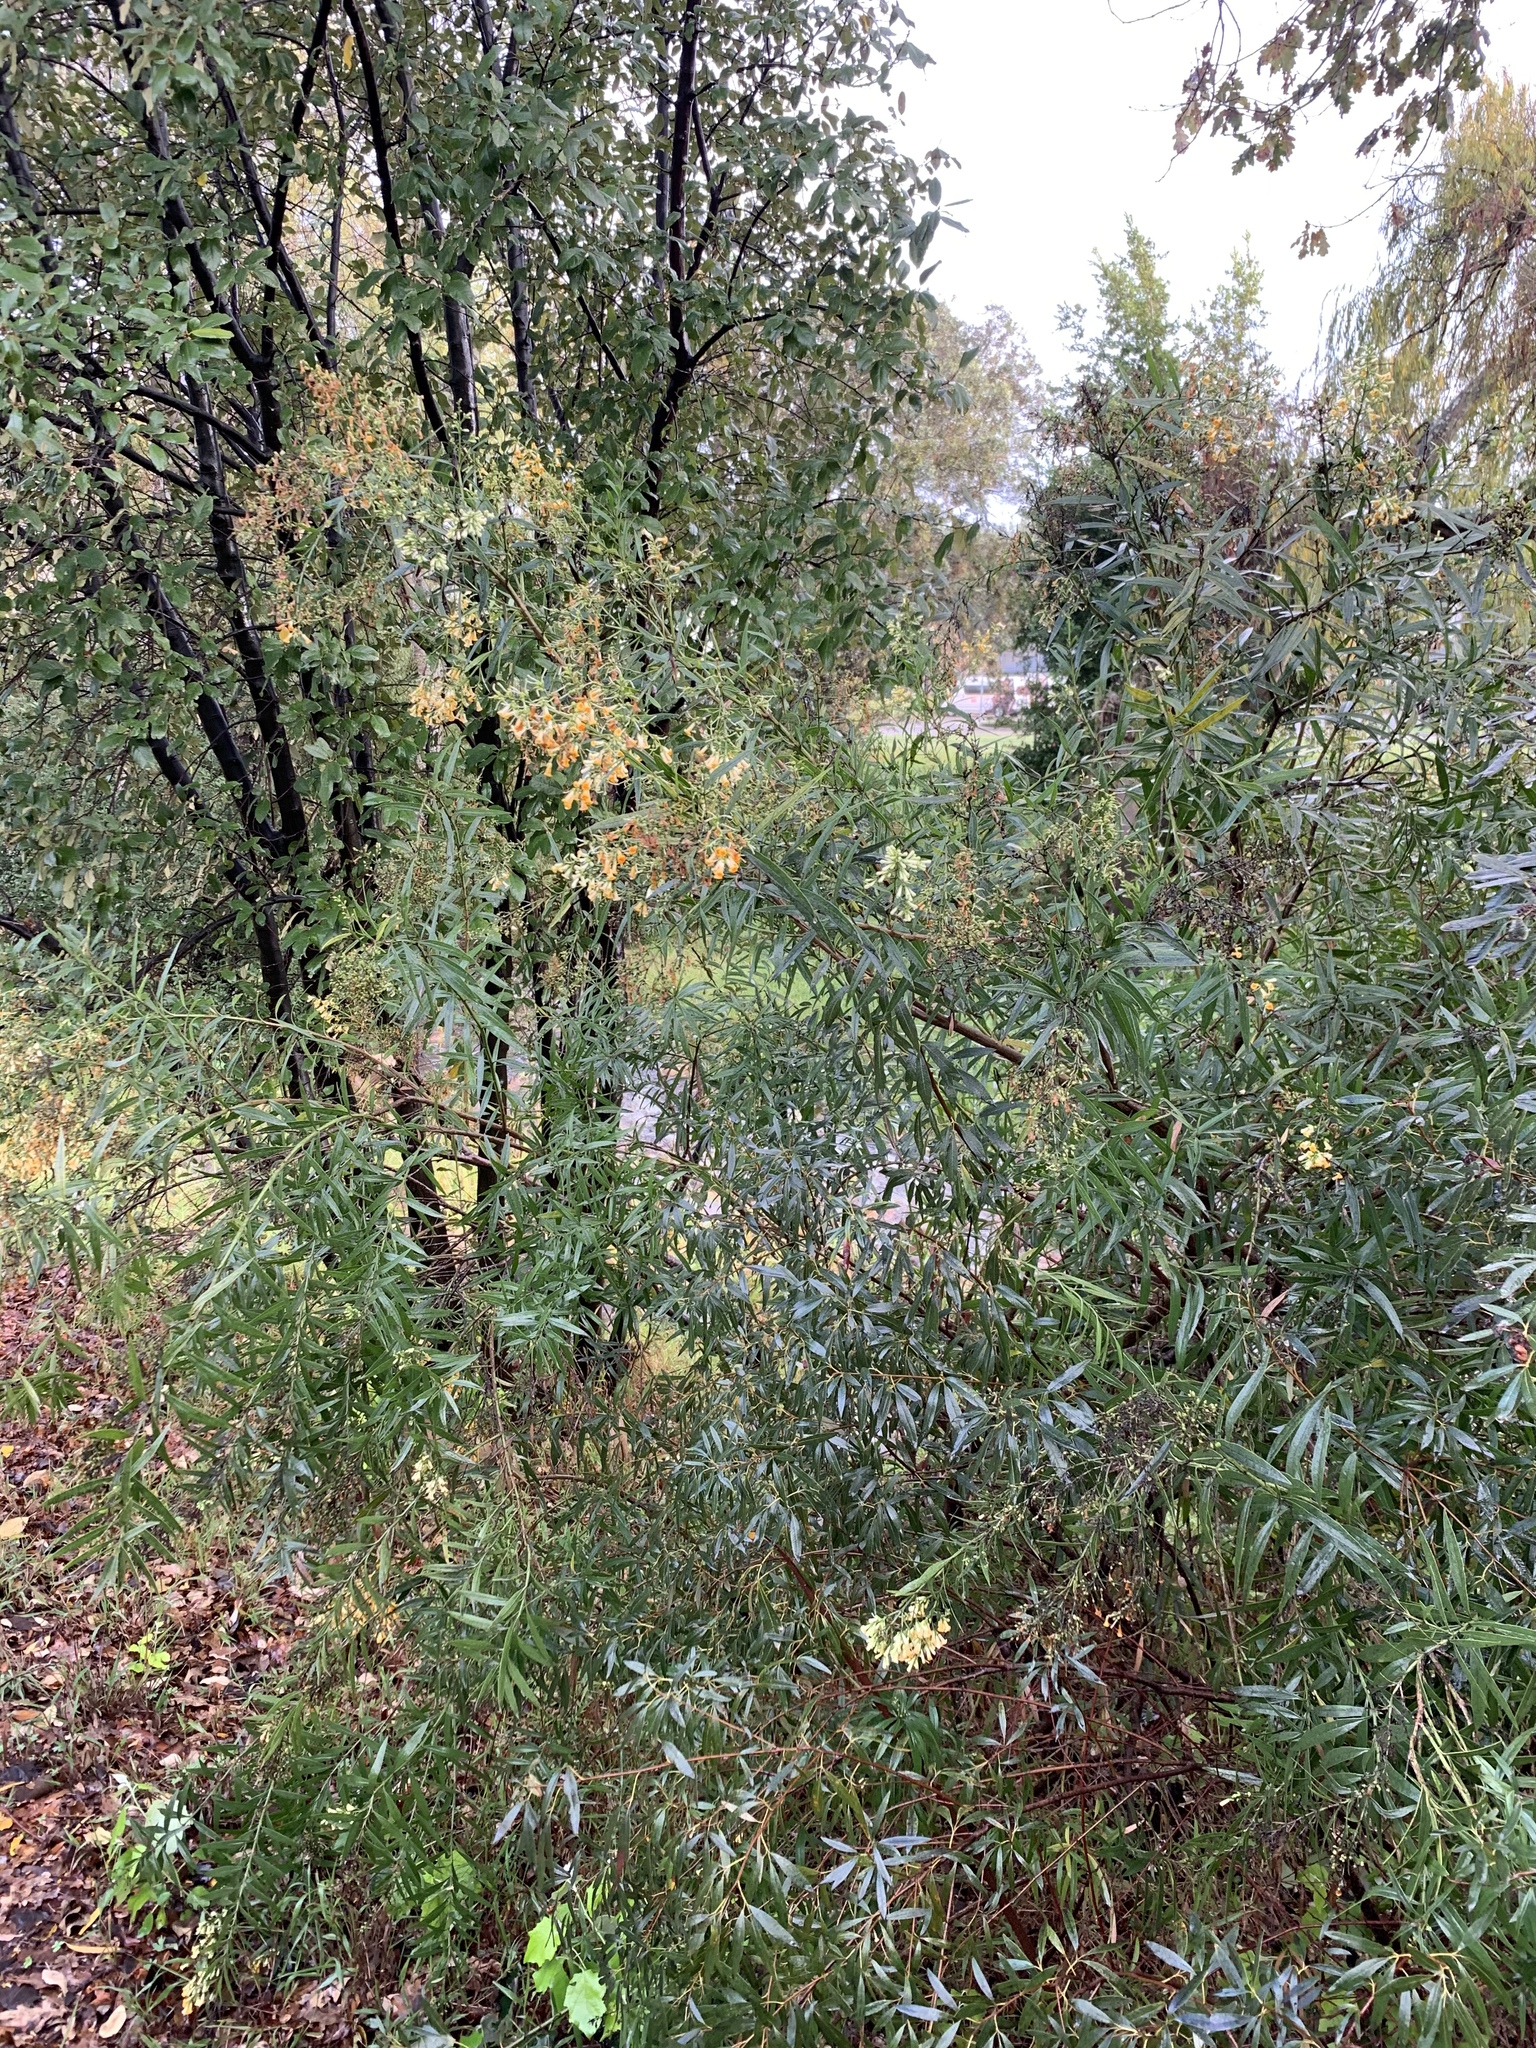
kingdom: Plantae
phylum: Tracheophyta
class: Magnoliopsida
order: Lamiales
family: Scrophulariaceae
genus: Freylinia
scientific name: Freylinia lanceolata
